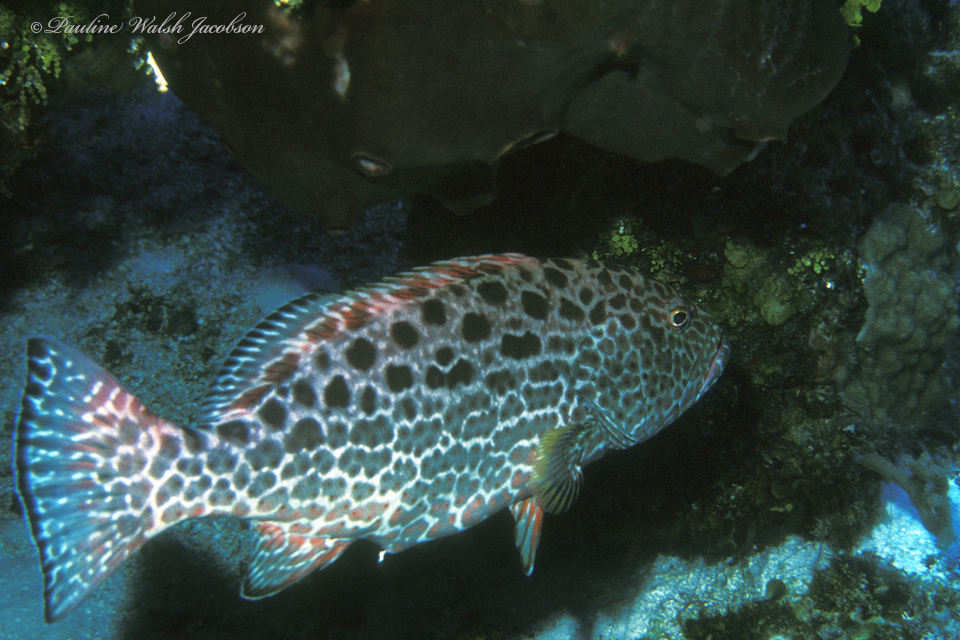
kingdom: Animalia
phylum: Chordata
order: Perciformes
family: Serranidae
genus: Mycteroperca
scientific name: Mycteroperca venenosa
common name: Yellowfin grouper
